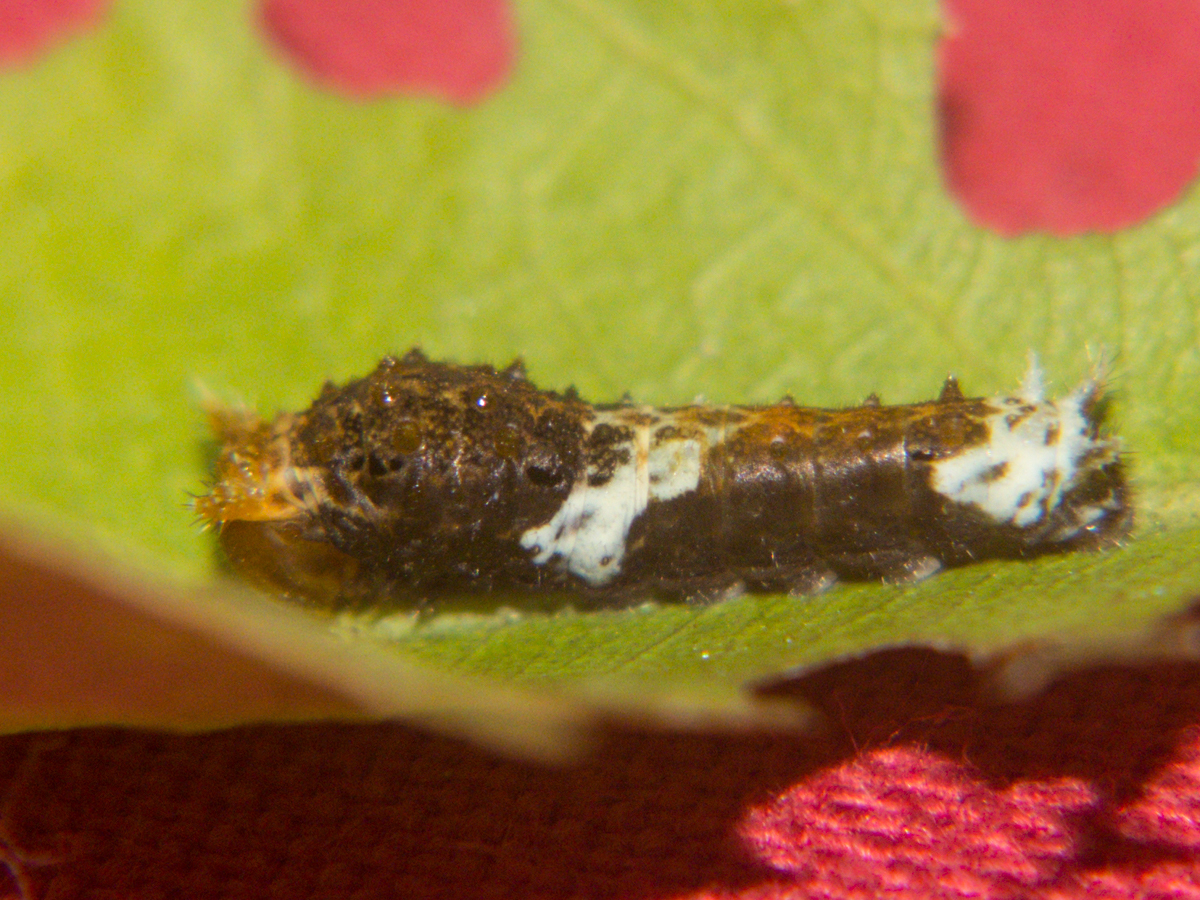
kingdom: Animalia
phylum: Arthropoda
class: Insecta
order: Lepidoptera
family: Papilionidae
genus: Papilio
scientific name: Papilio polytes
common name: Common mormon
